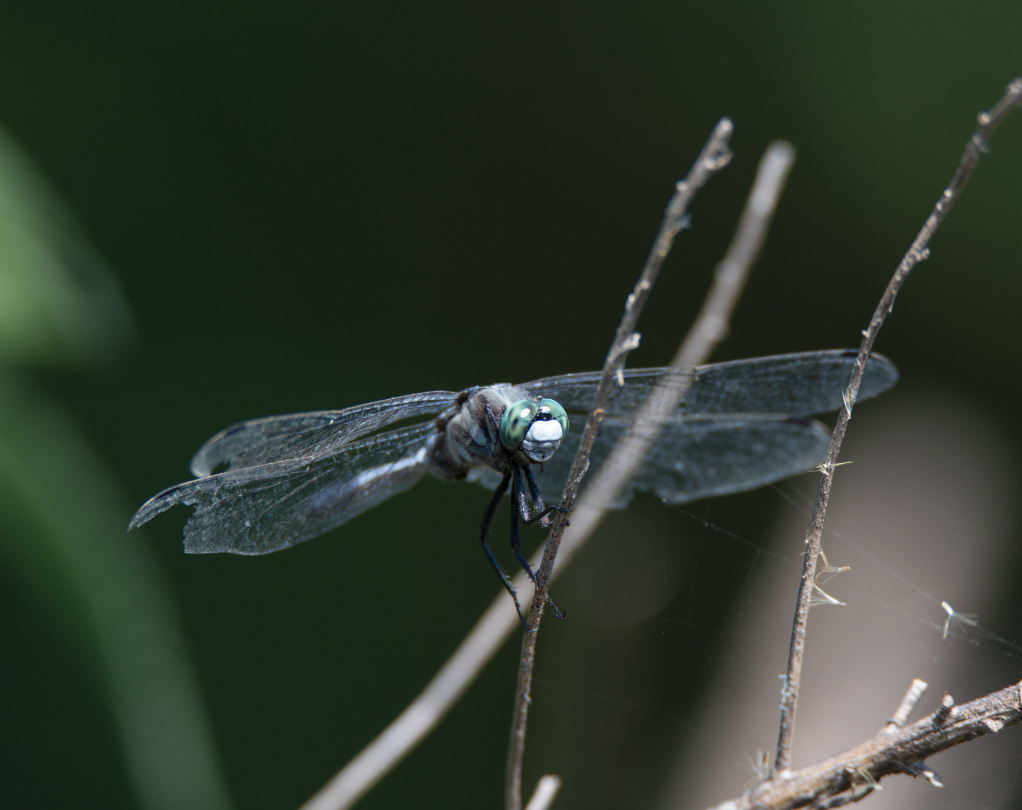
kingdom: Animalia
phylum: Arthropoda
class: Insecta
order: Odonata
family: Libellulidae
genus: Orthetrum
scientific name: Orthetrum albistylum
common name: White-tailed skimmer
